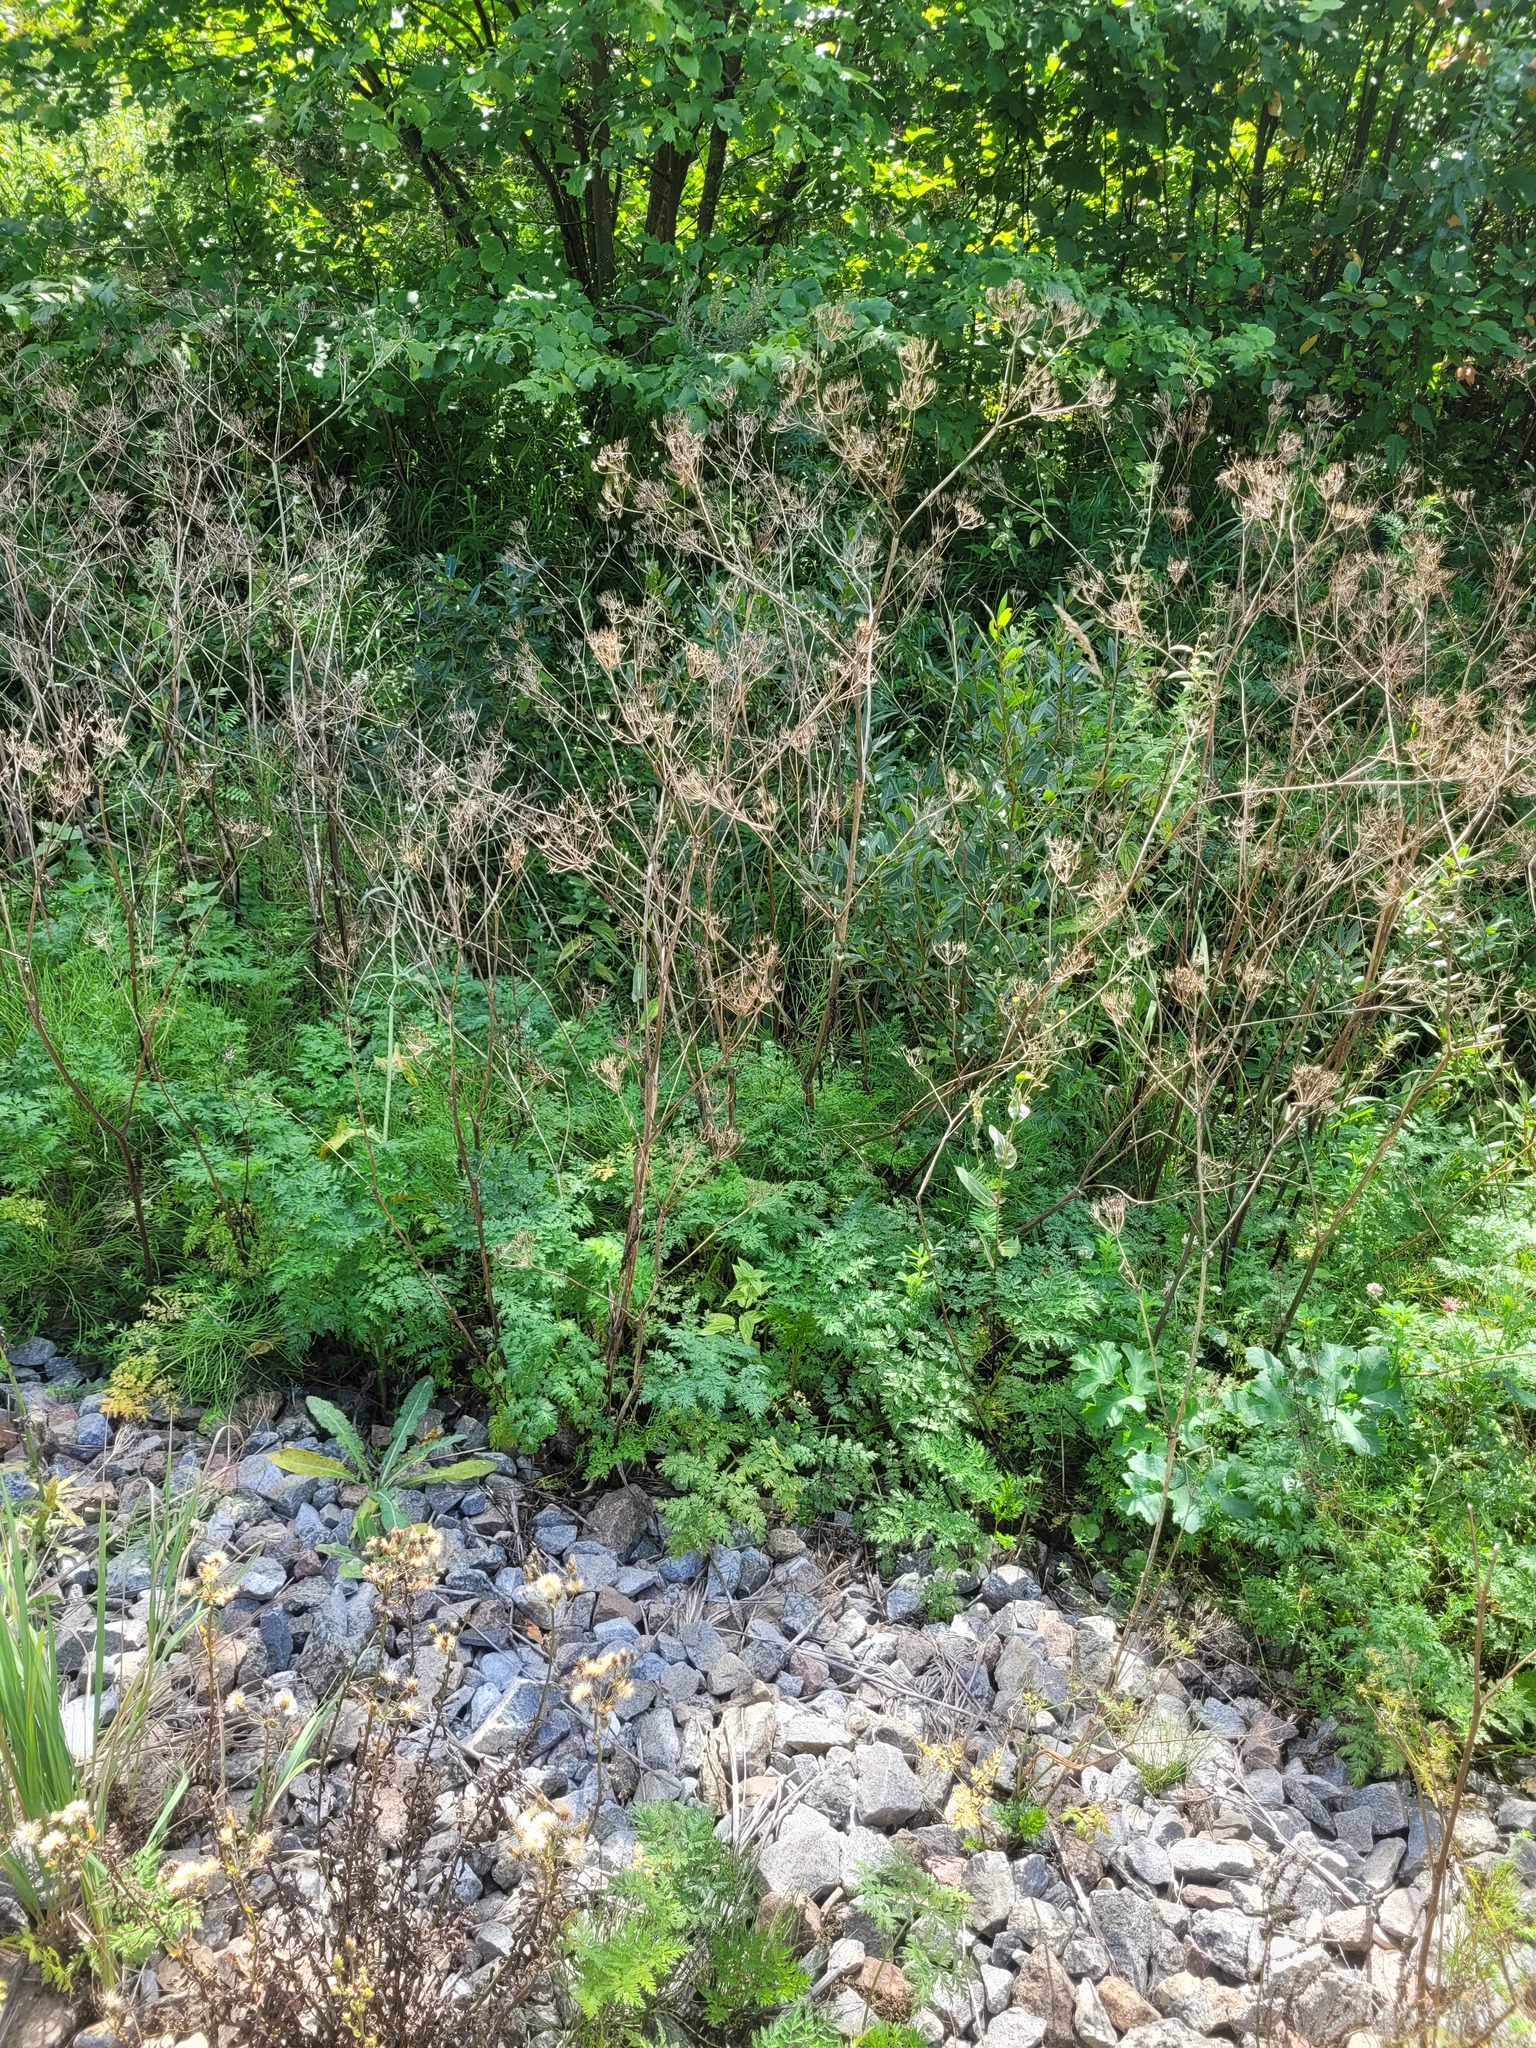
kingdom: Plantae
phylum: Tracheophyta
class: Magnoliopsida
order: Apiales
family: Apiaceae
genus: Anthriscus
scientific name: Anthriscus sylvestris
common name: Cow parsley
